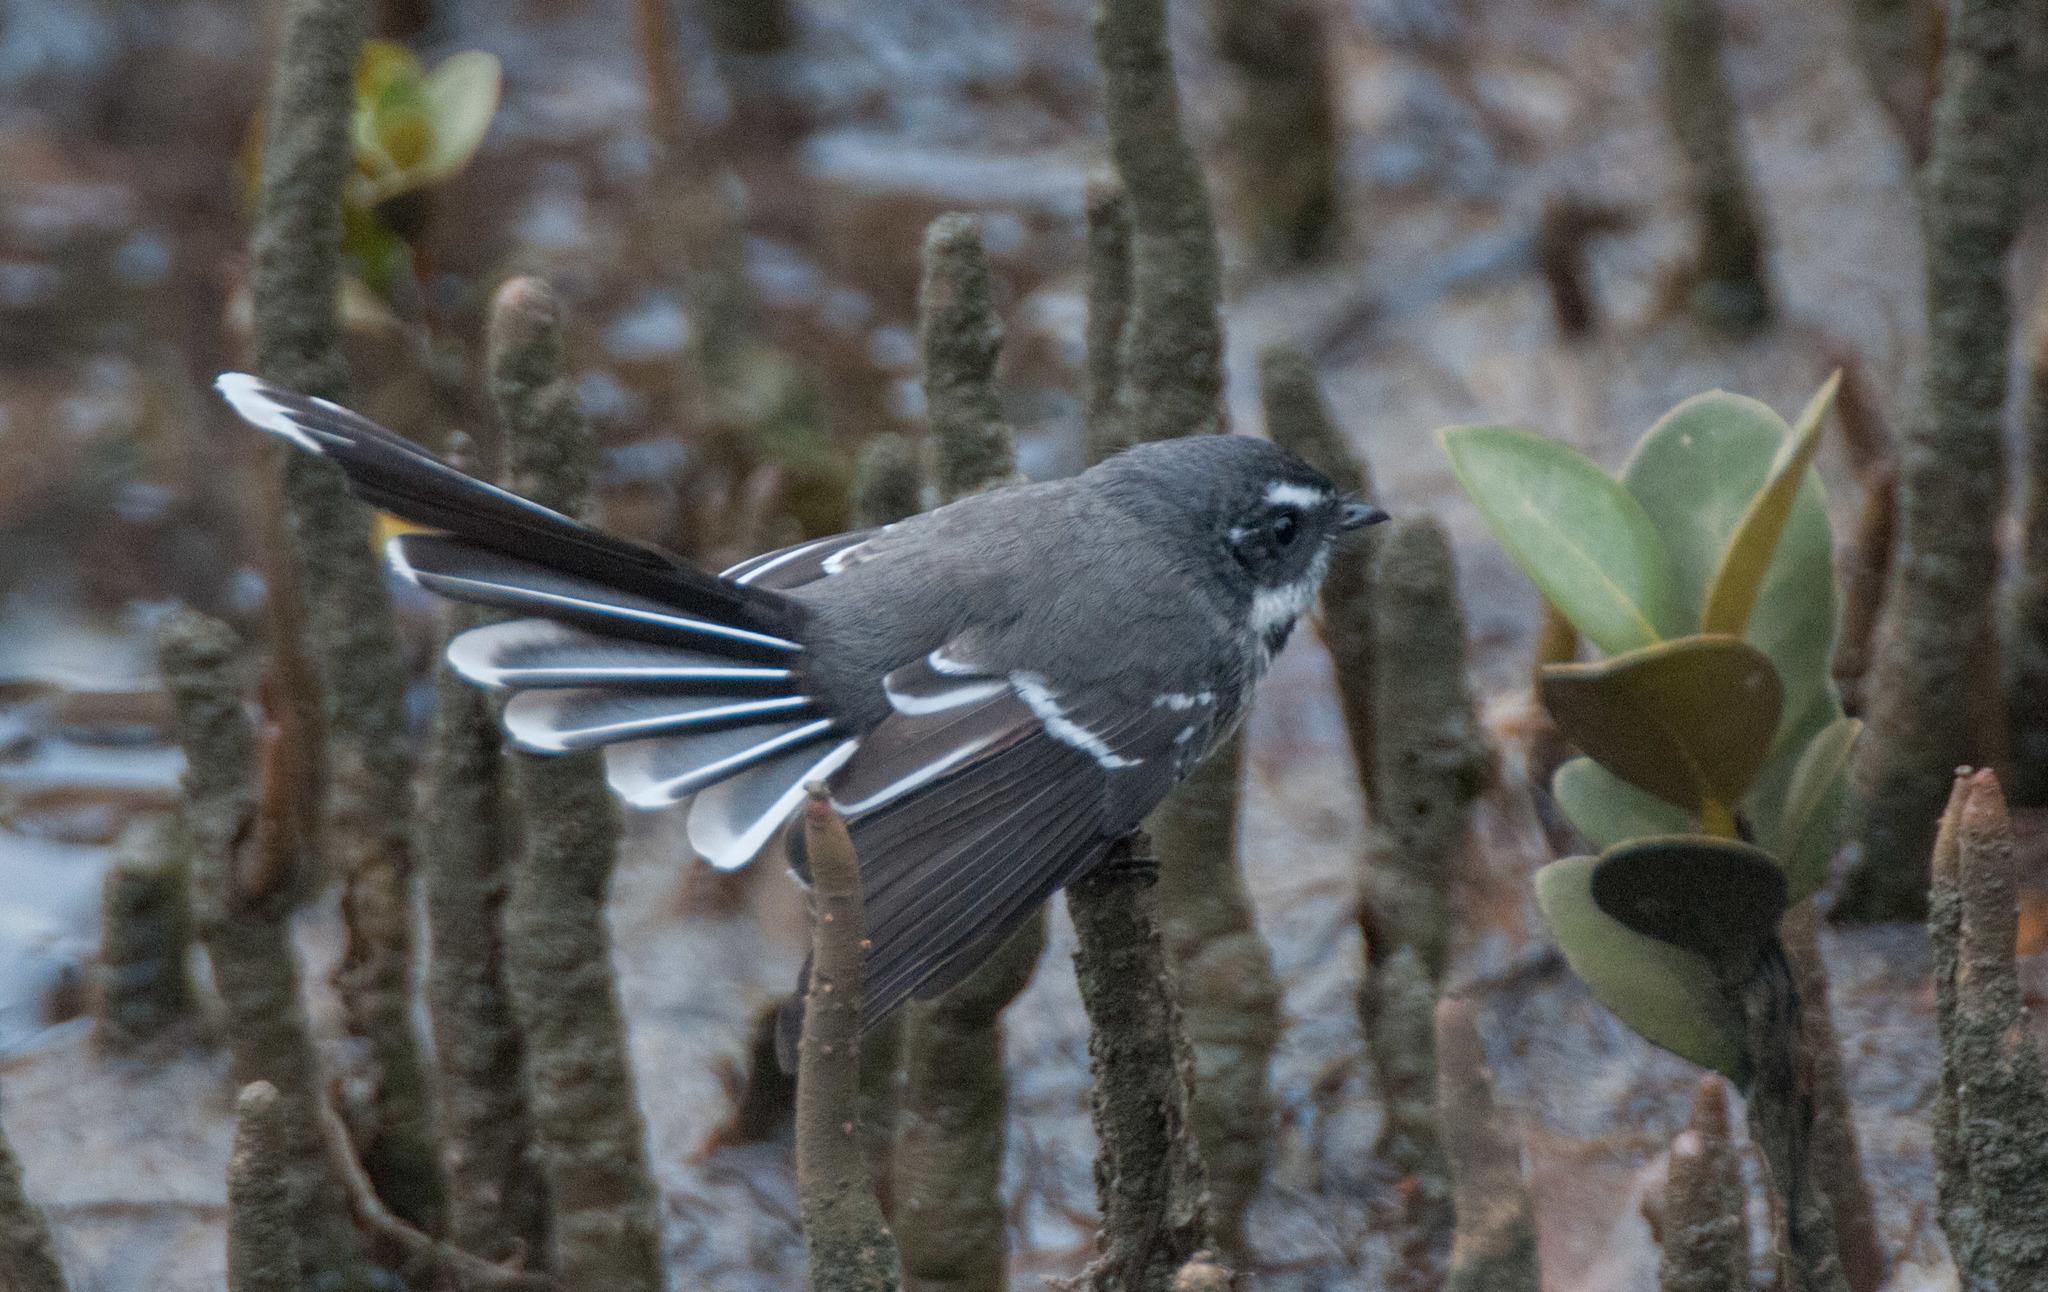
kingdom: Animalia
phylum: Chordata
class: Aves
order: Passeriformes
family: Rhipiduridae
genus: Rhipidura
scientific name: Rhipidura albiscapa
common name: Grey fantail
